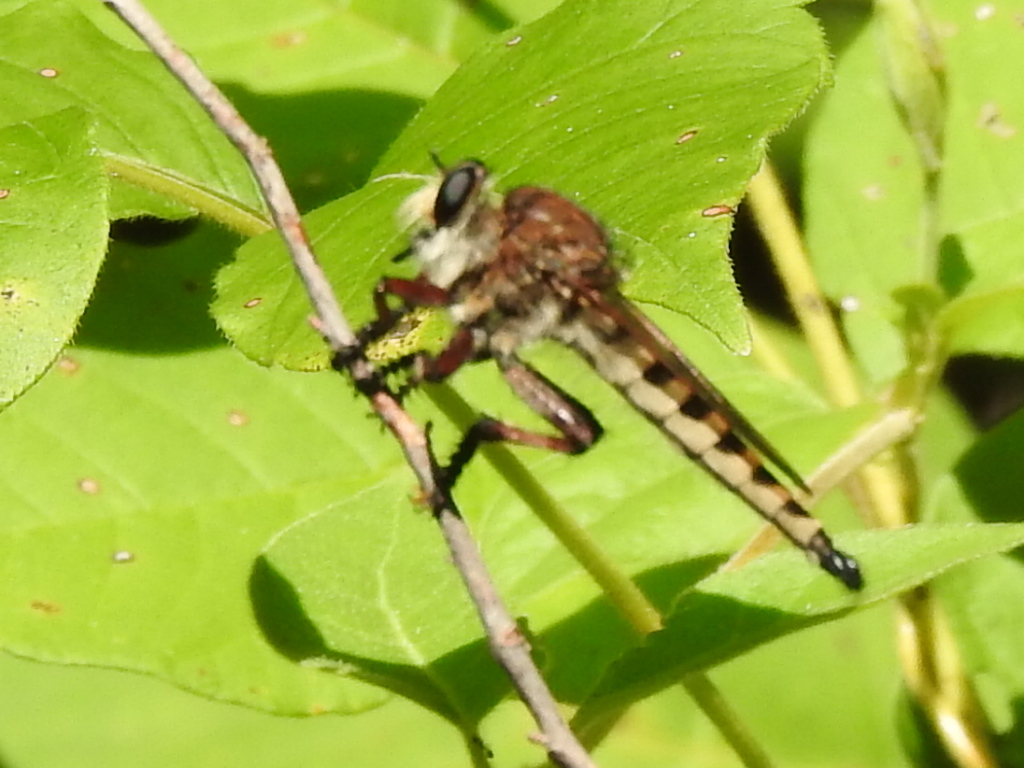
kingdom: Animalia
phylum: Arthropoda
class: Insecta
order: Diptera
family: Asilidae
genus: Promachus
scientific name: Promachus hinei
